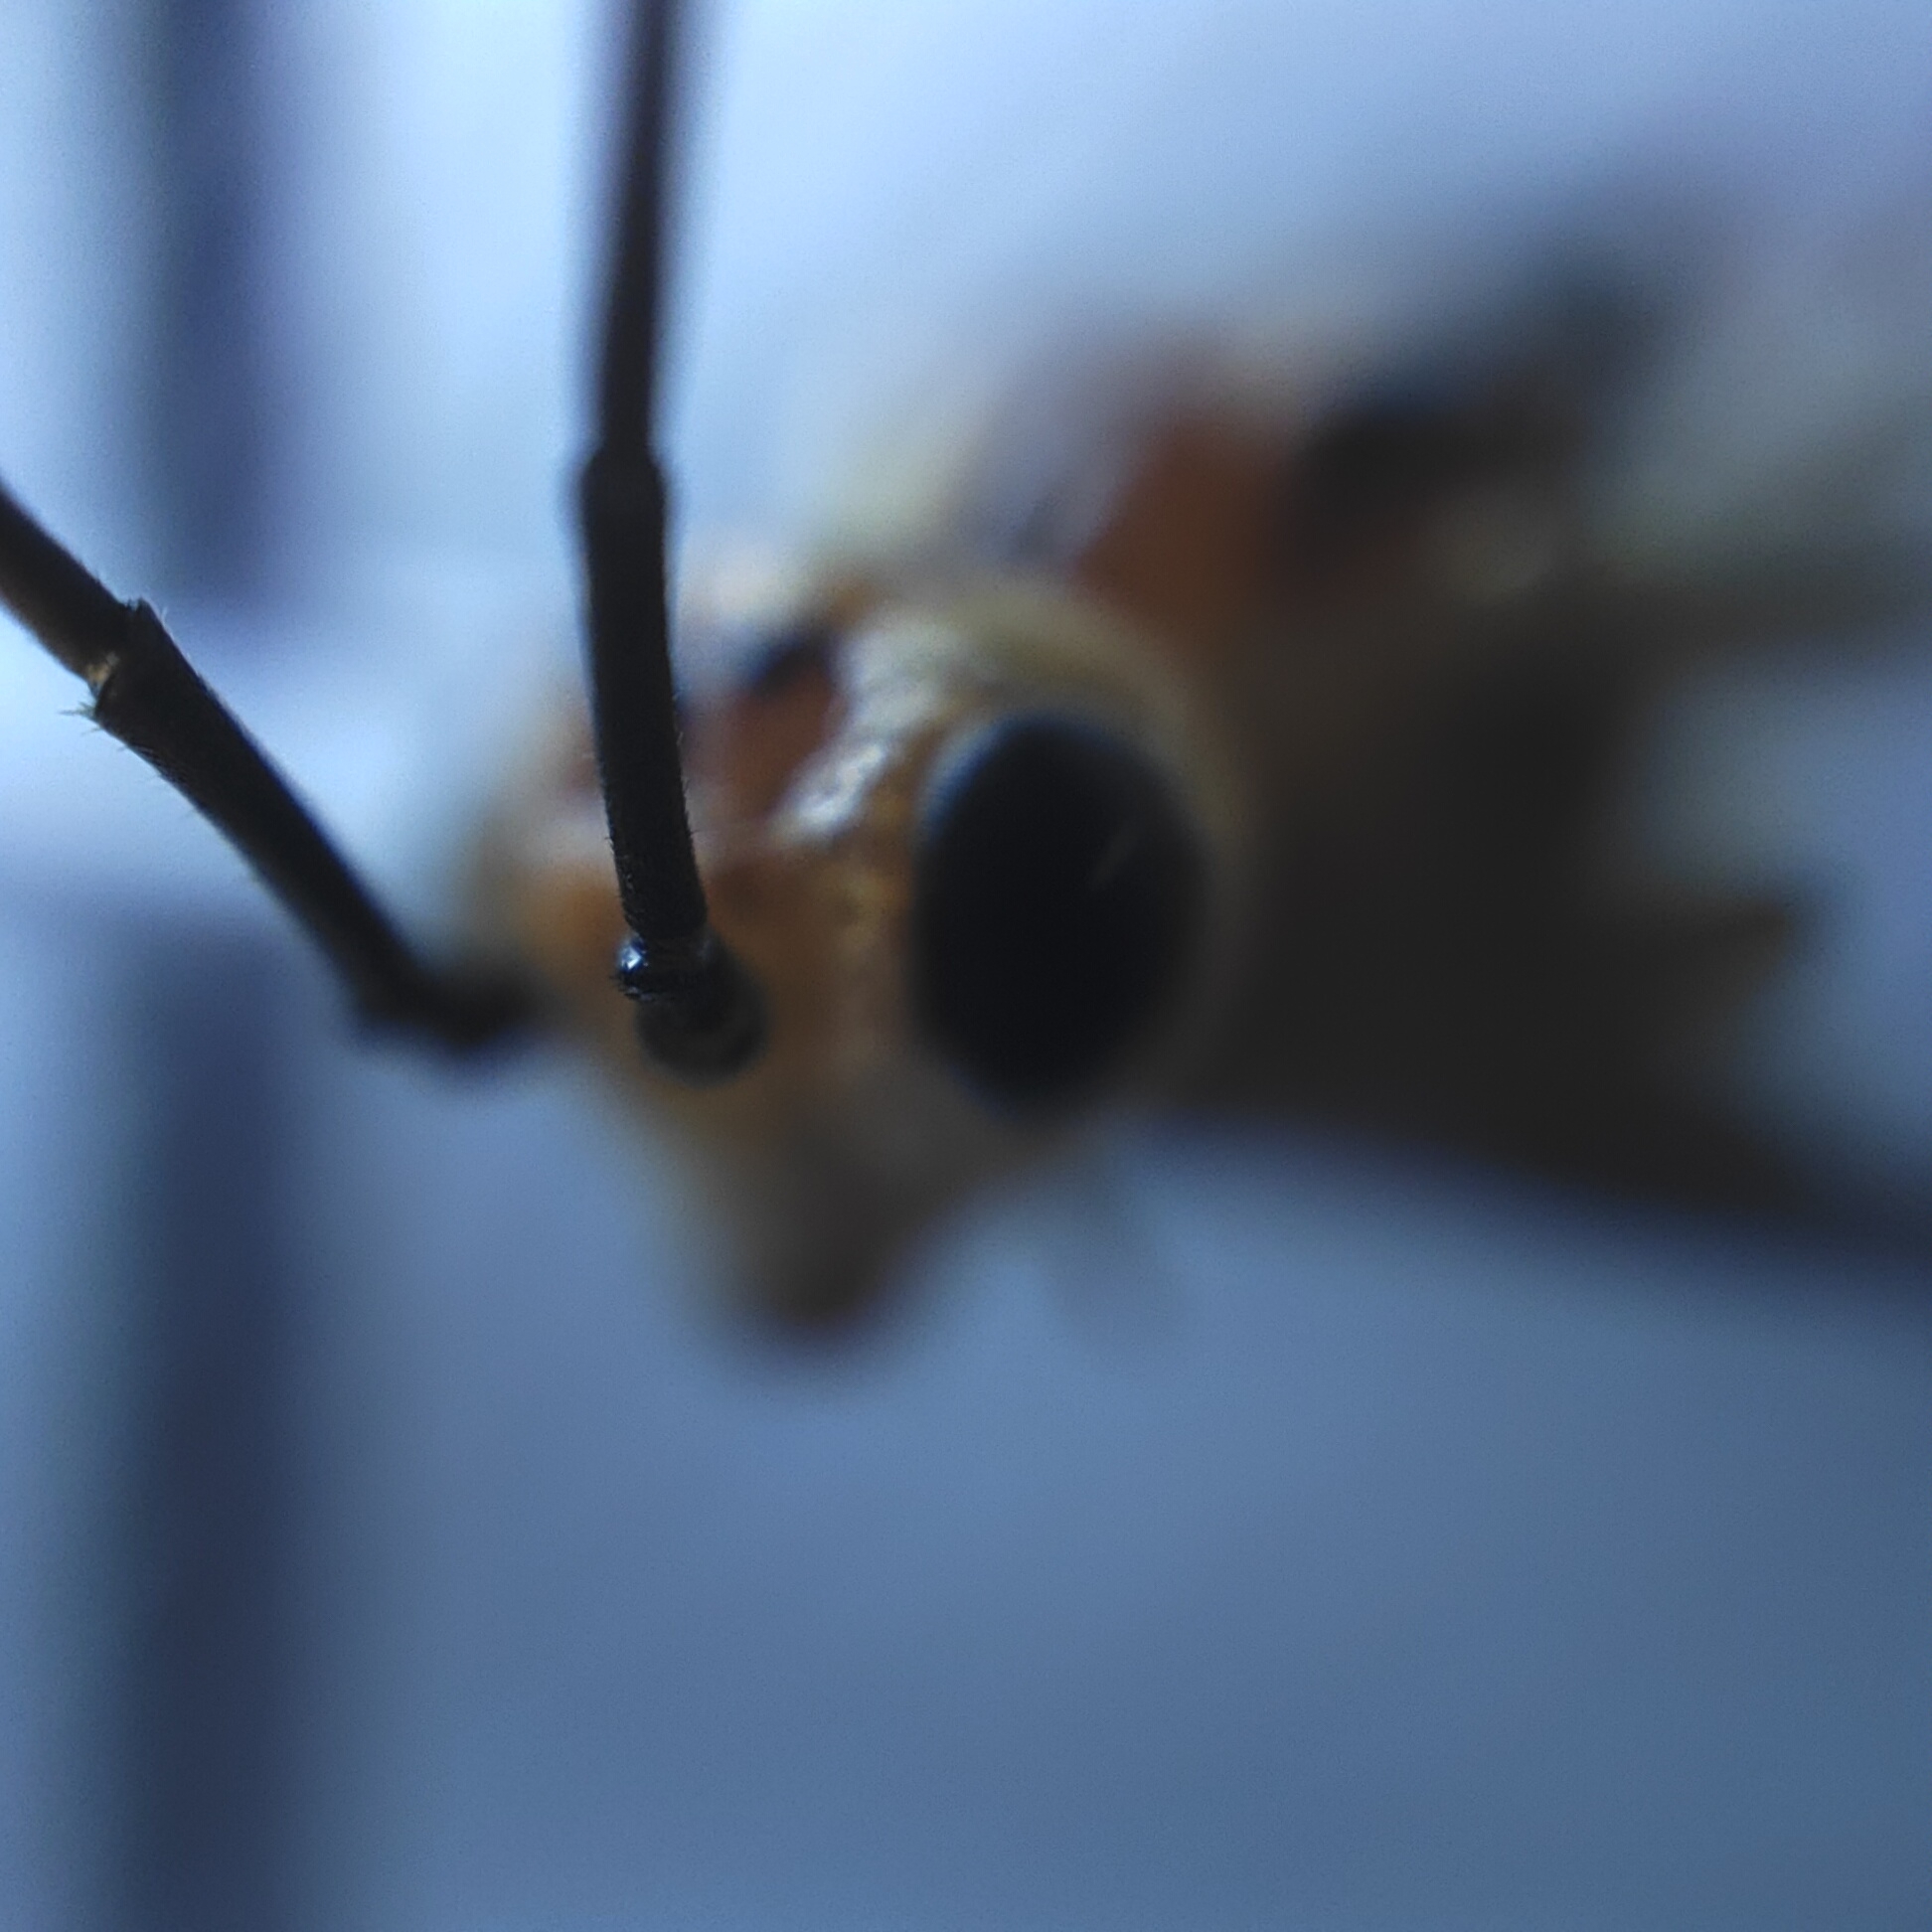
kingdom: Animalia
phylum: Arthropoda
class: Insecta
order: Hymenoptera
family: Tenthredinidae
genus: Nematus
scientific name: Nematus respondens
